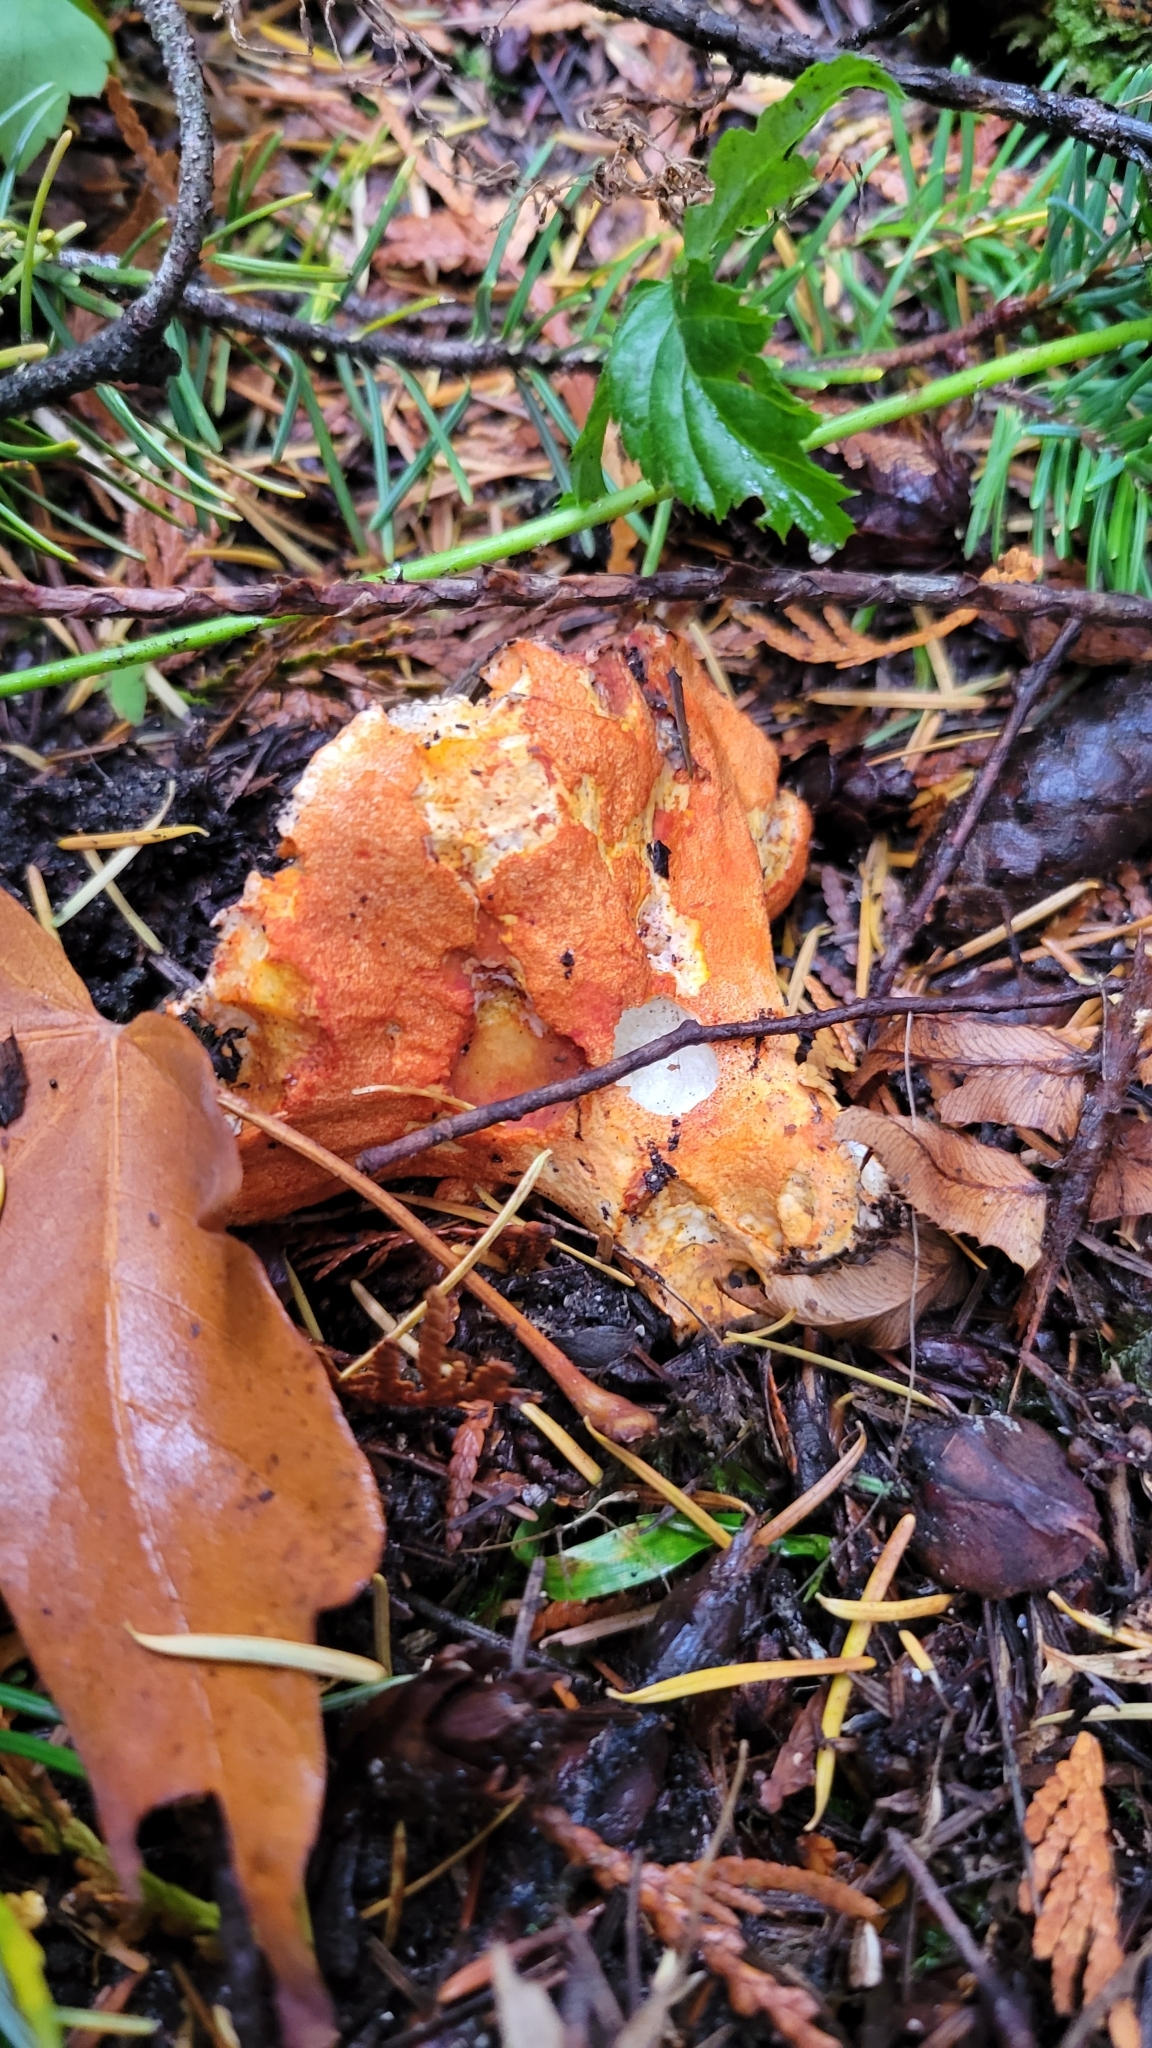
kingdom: Fungi
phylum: Ascomycota
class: Sordariomycetes
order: Hypocreales
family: Hypocreaceae
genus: Hypomyces
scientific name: Hypomyces lactifluorum
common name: Lobster mushroom
